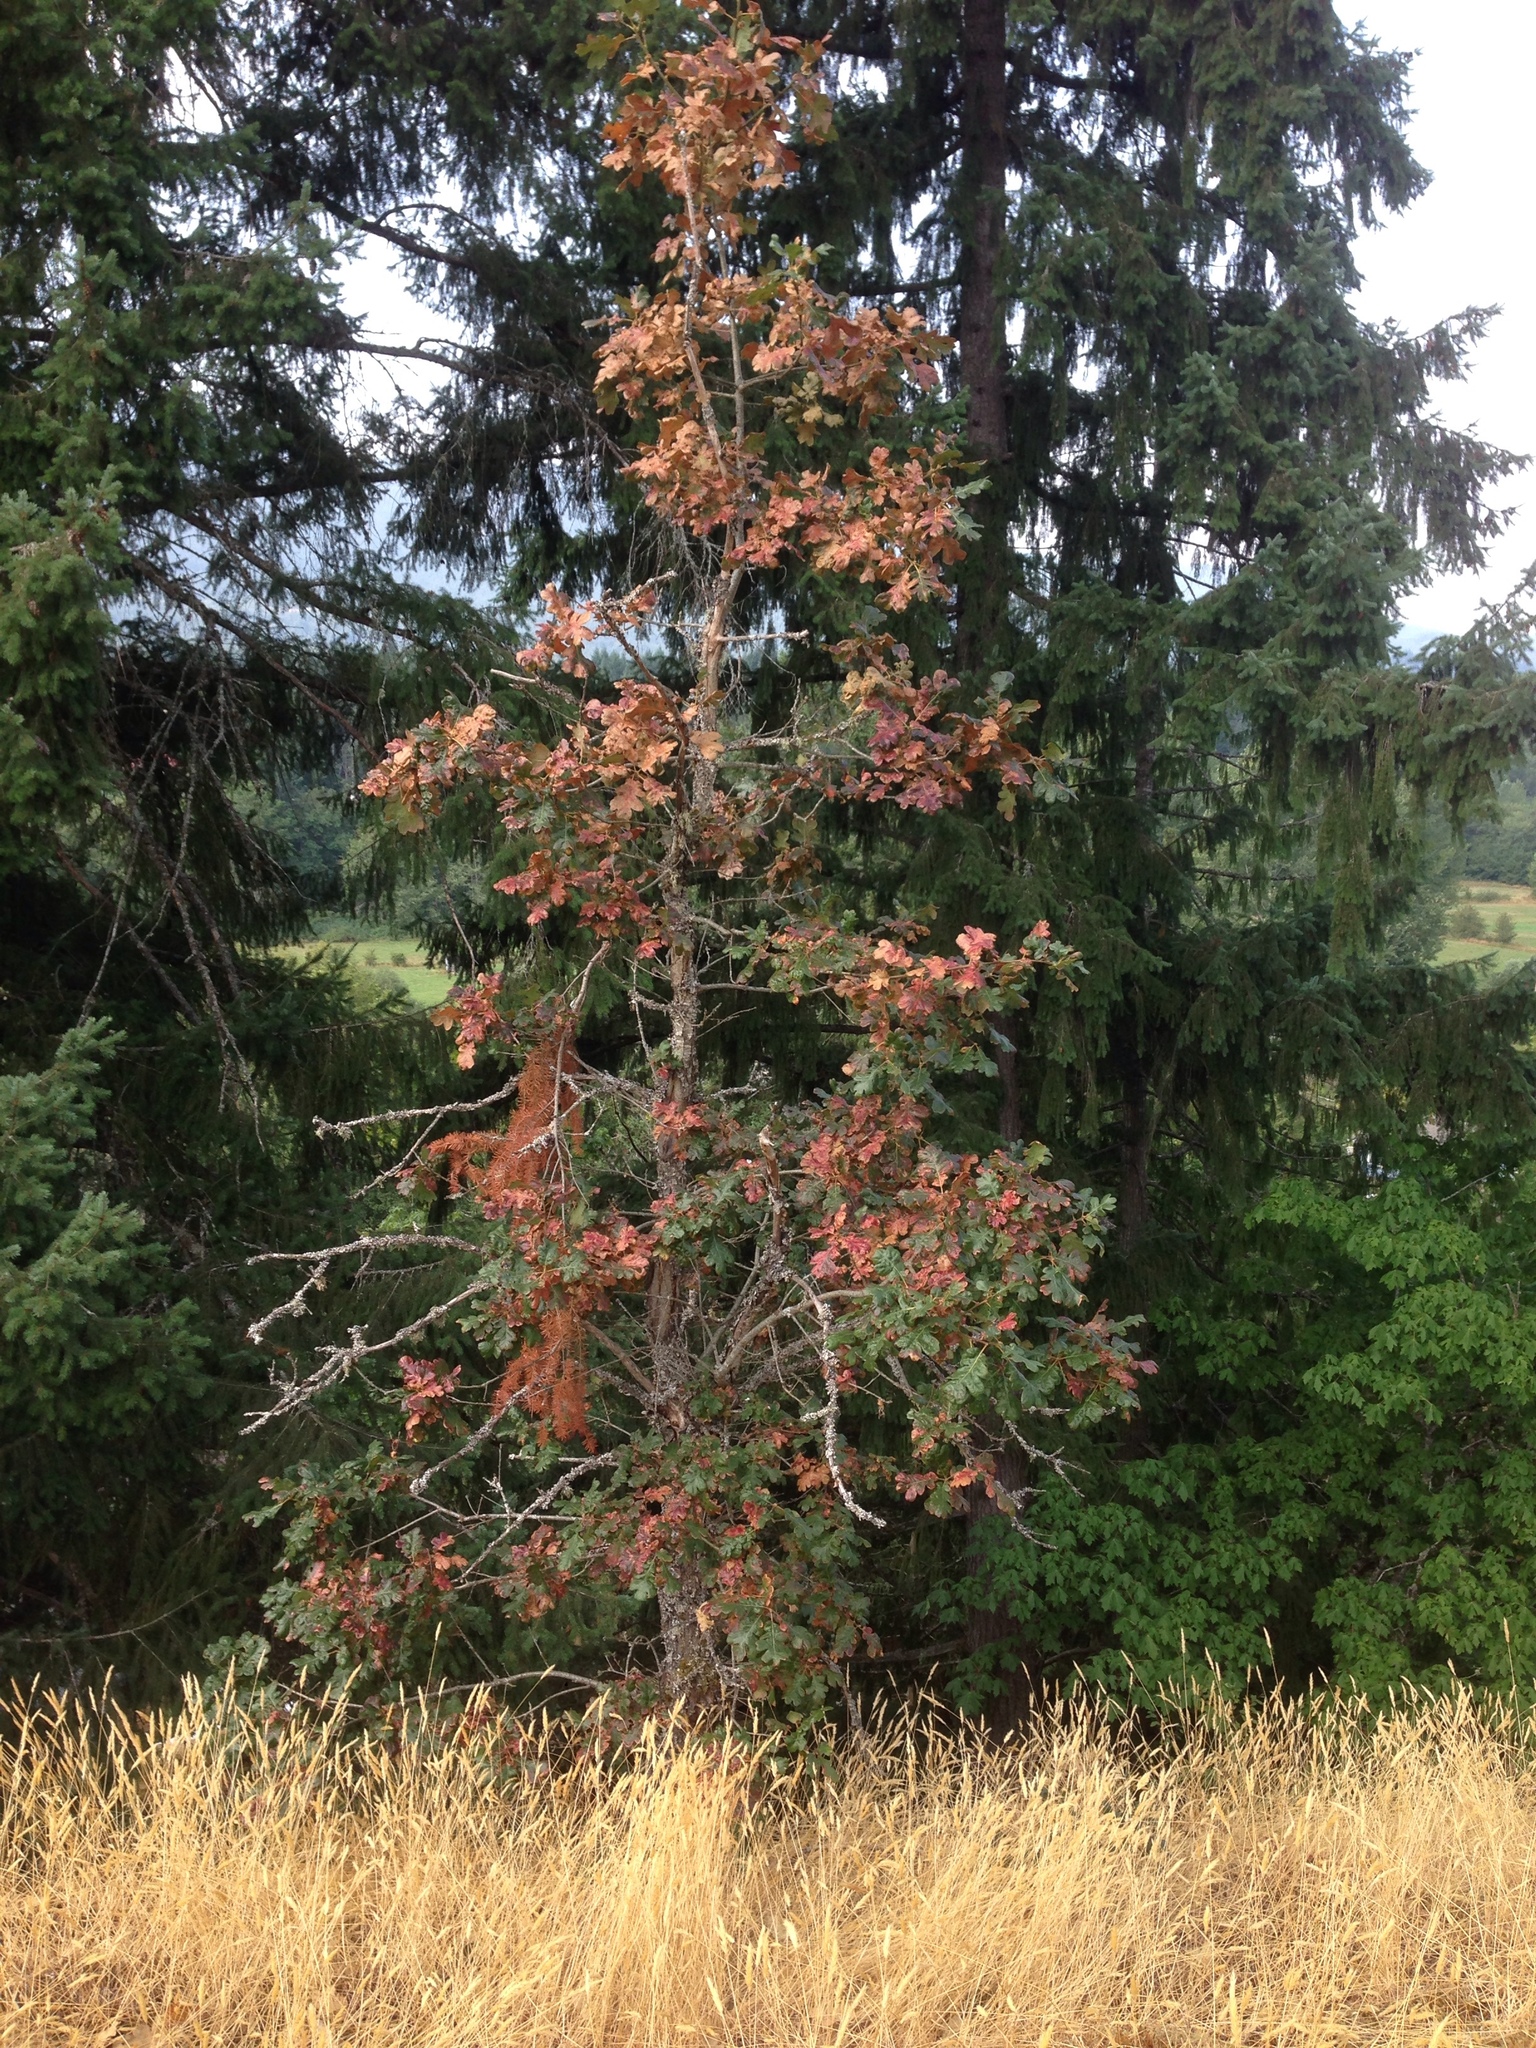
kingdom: Plantae
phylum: Tracheophyta
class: Magnoliopsida
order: Fagales
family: Fagaceae
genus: Quercus
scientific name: Quercus garryana
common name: Garry oak
